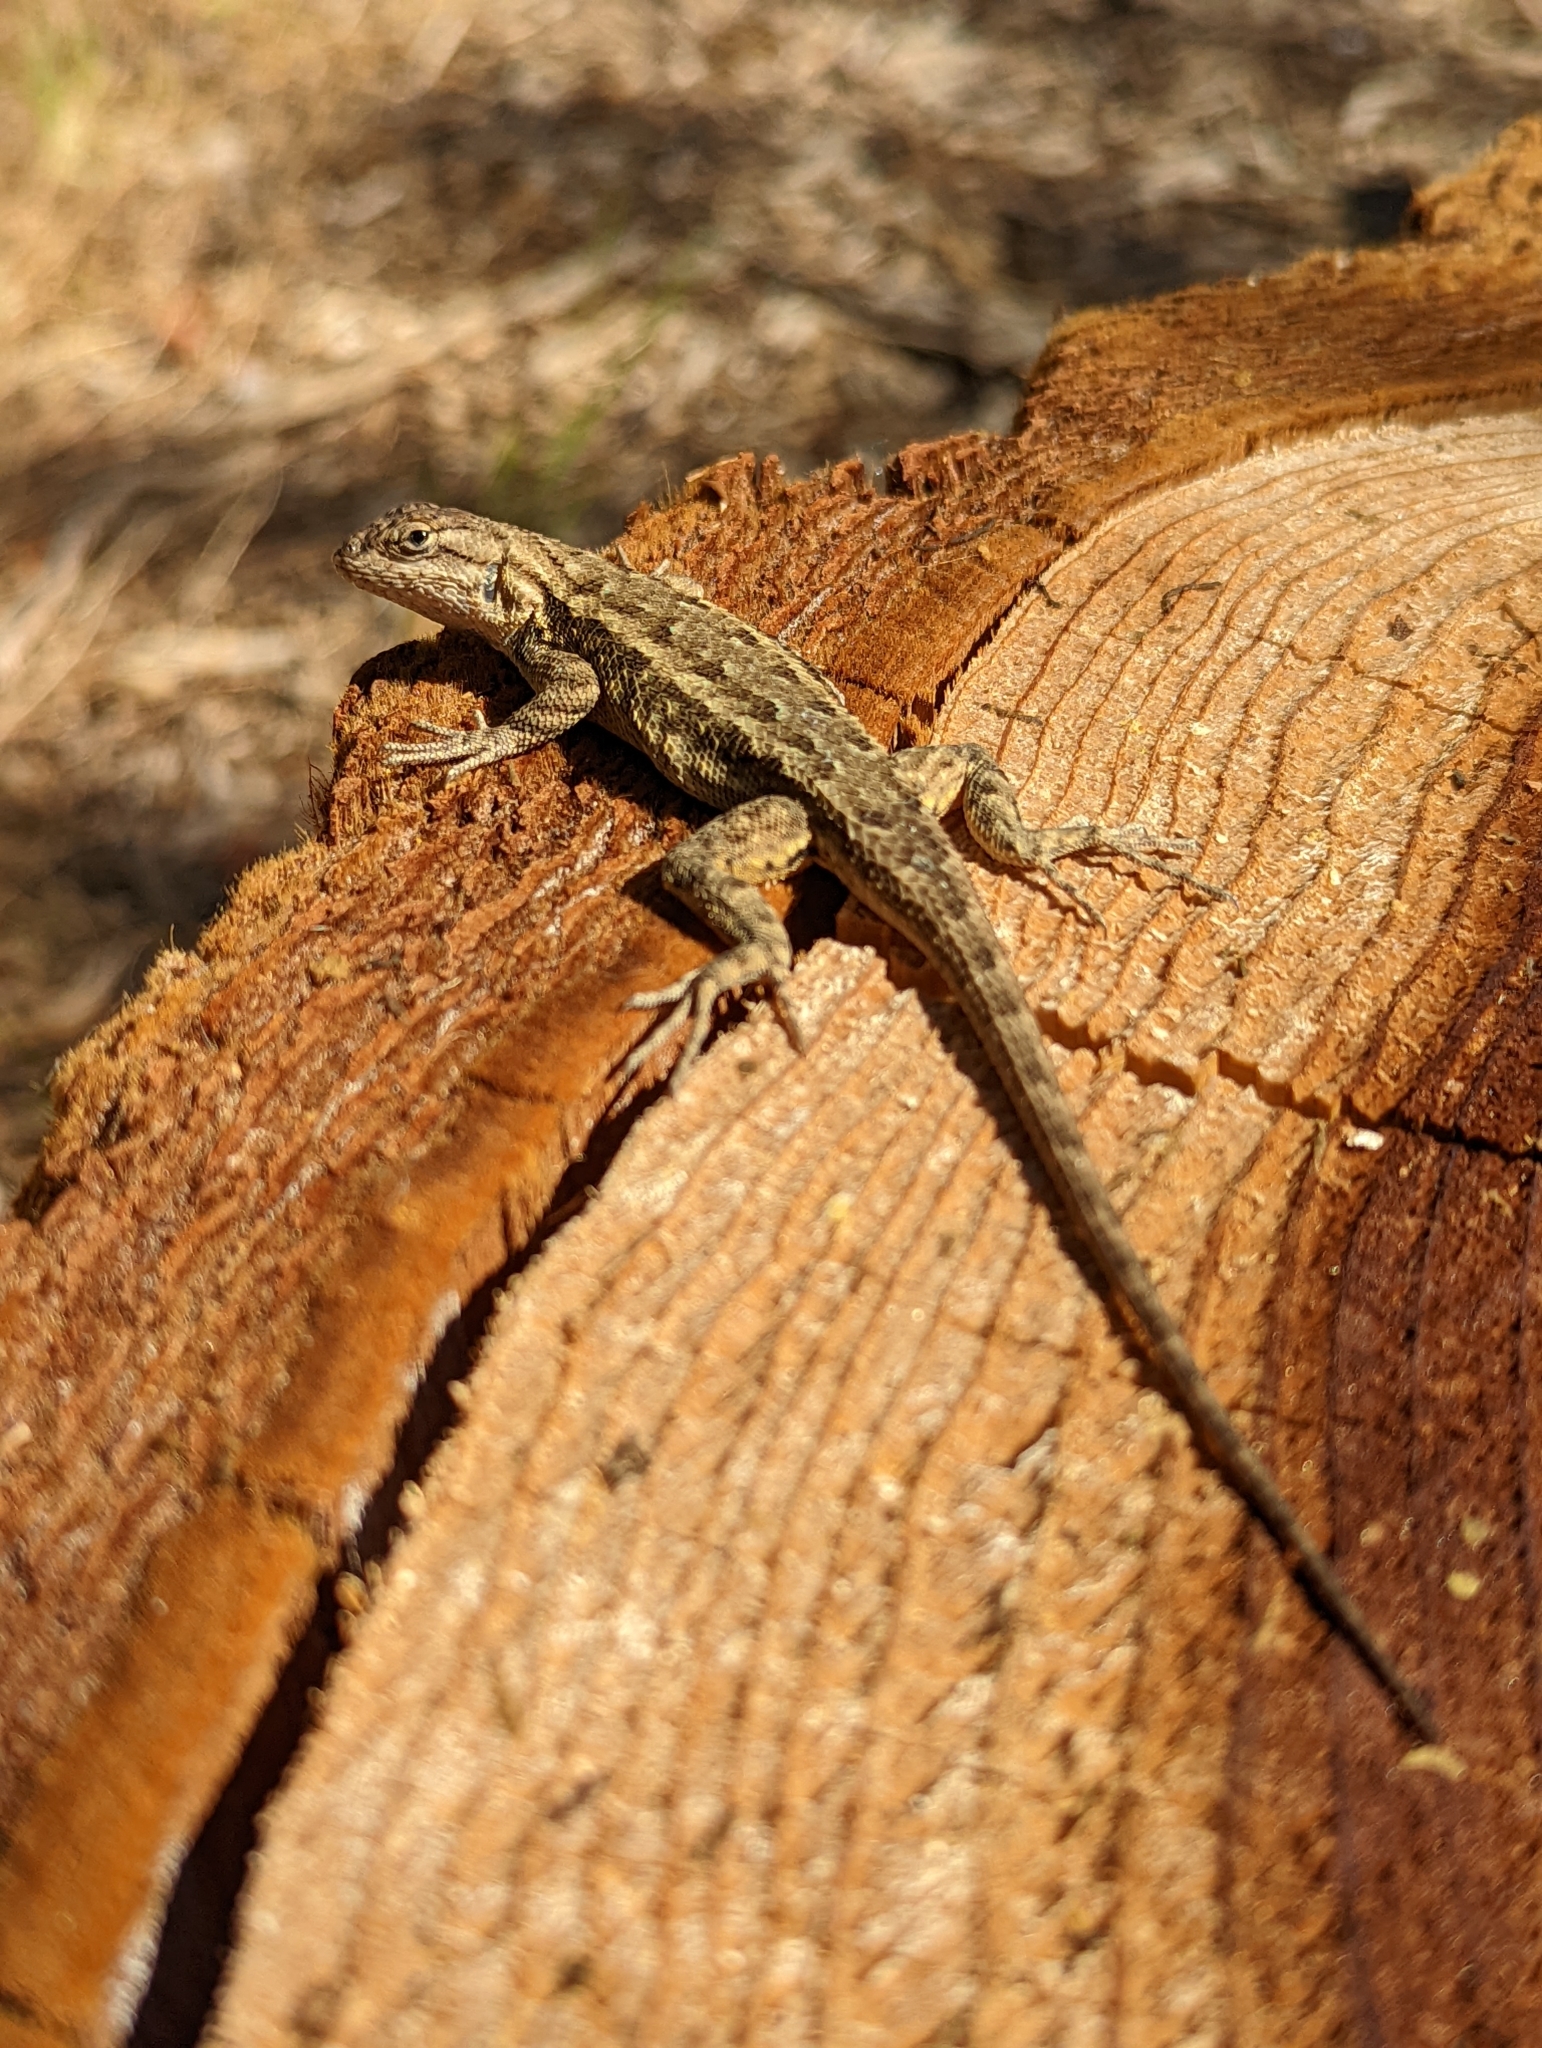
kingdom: Animalia
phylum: Chordata
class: Squamata
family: Phrynosomatidae
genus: Sceloporus
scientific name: Sceloporus occidentalis
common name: Western fence lizard
